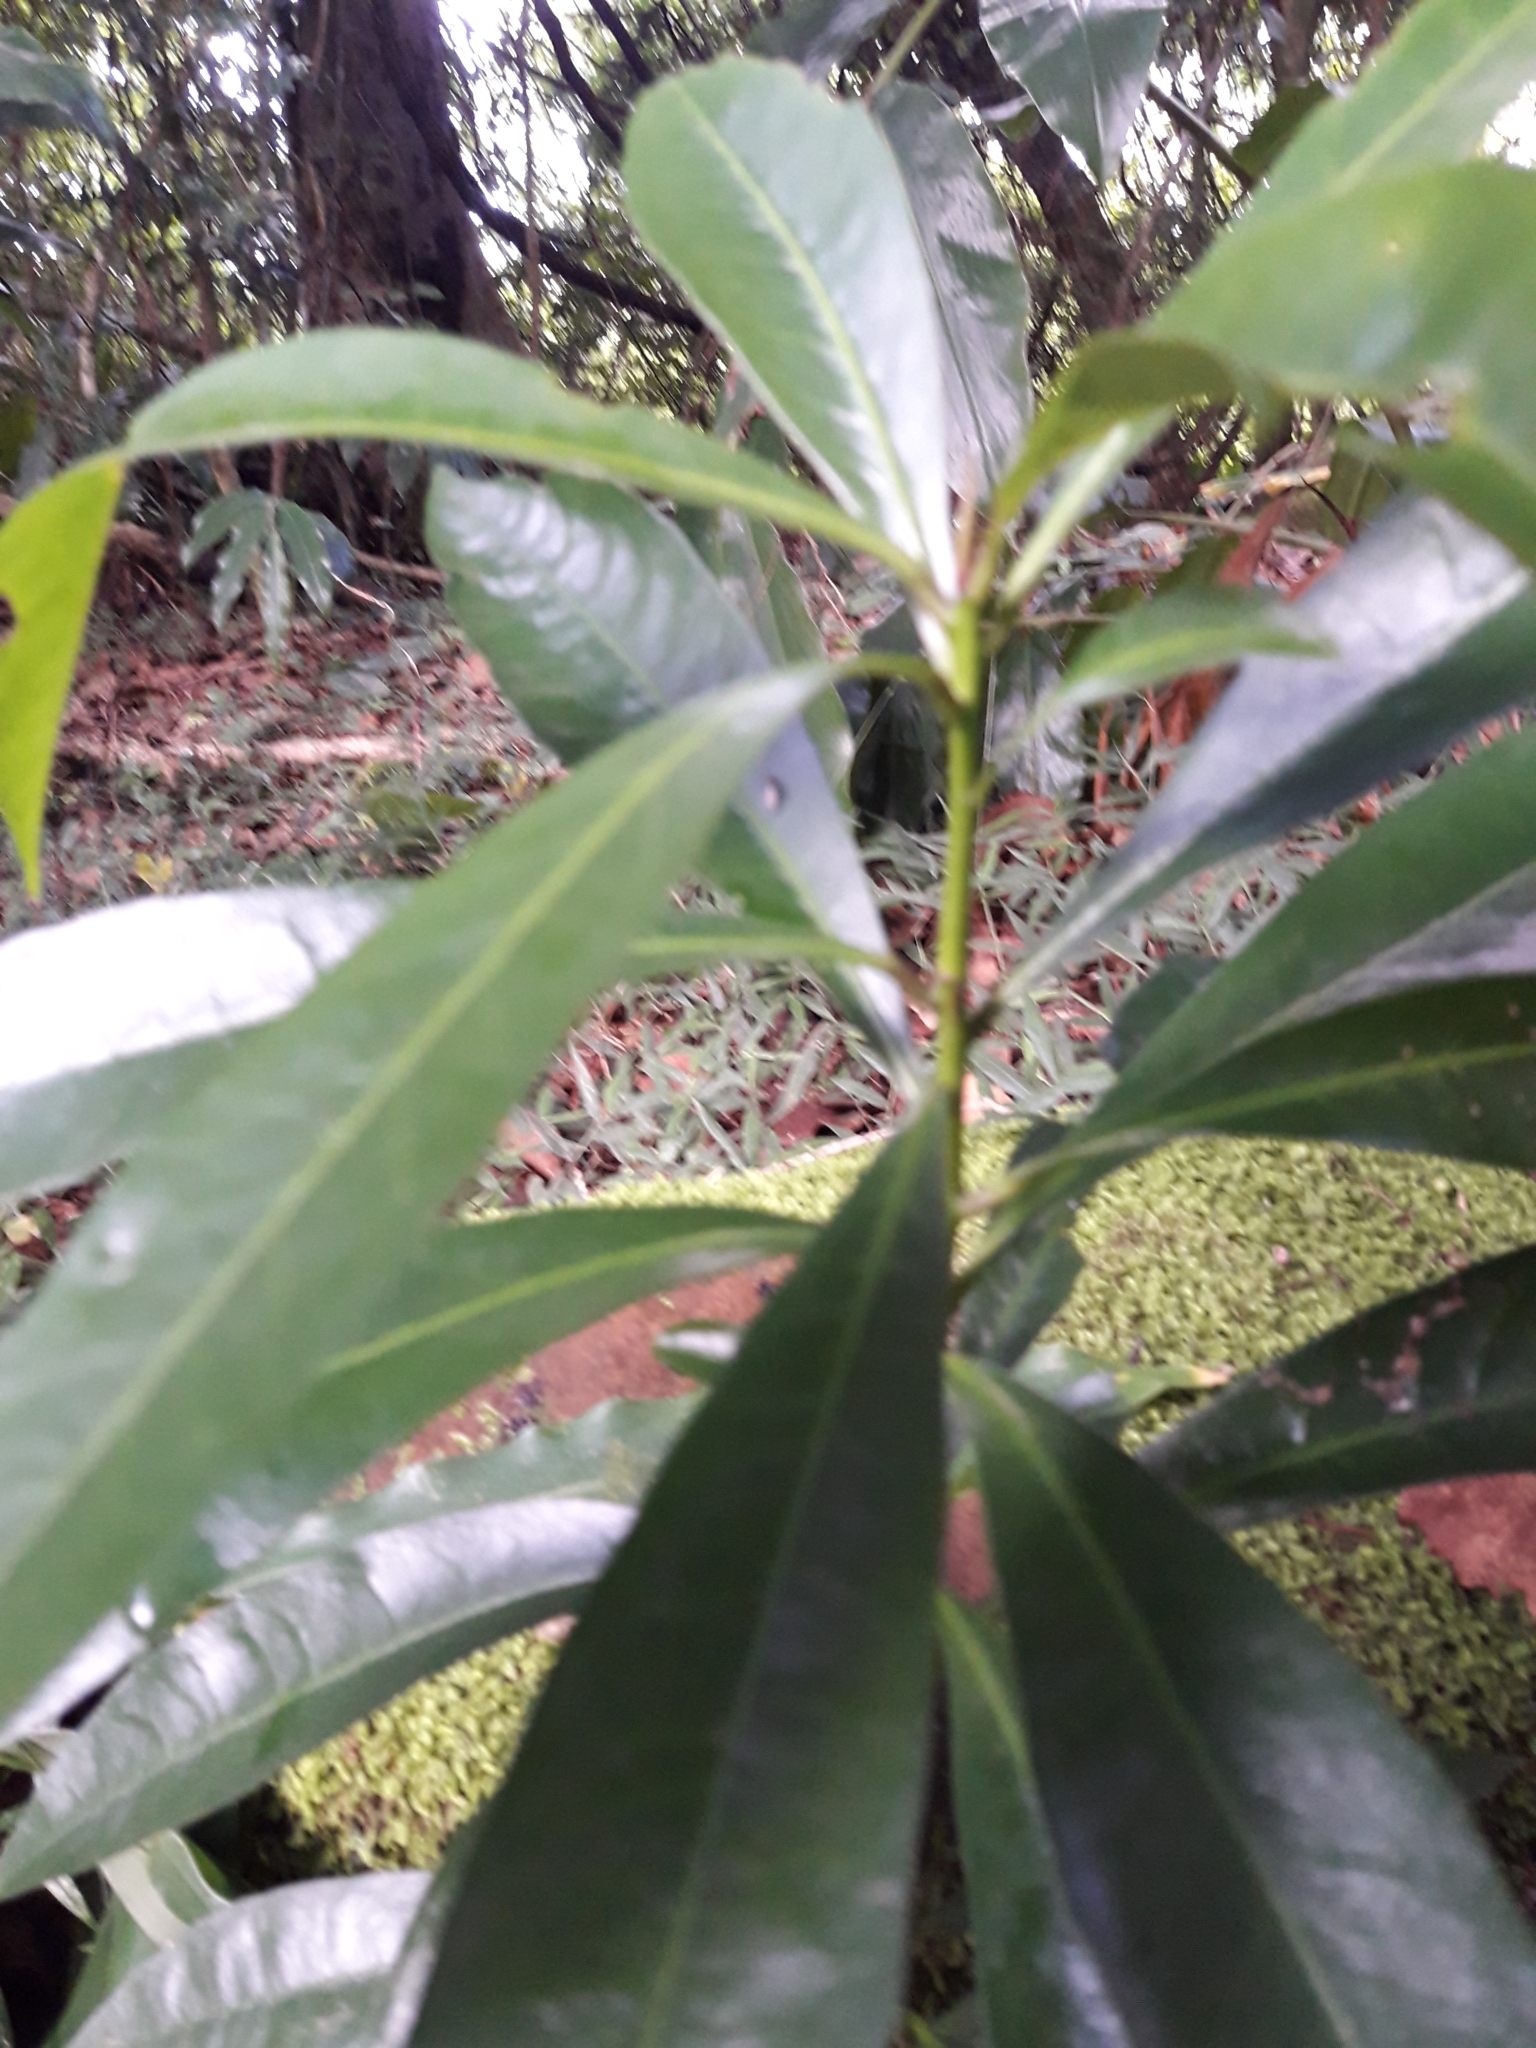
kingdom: Plantae
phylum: Tracheophyta
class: Magnoliopsida
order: Malvales
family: Thymelaeaceae
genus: Peddiea
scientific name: Peddiea africana
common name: Poison olive
